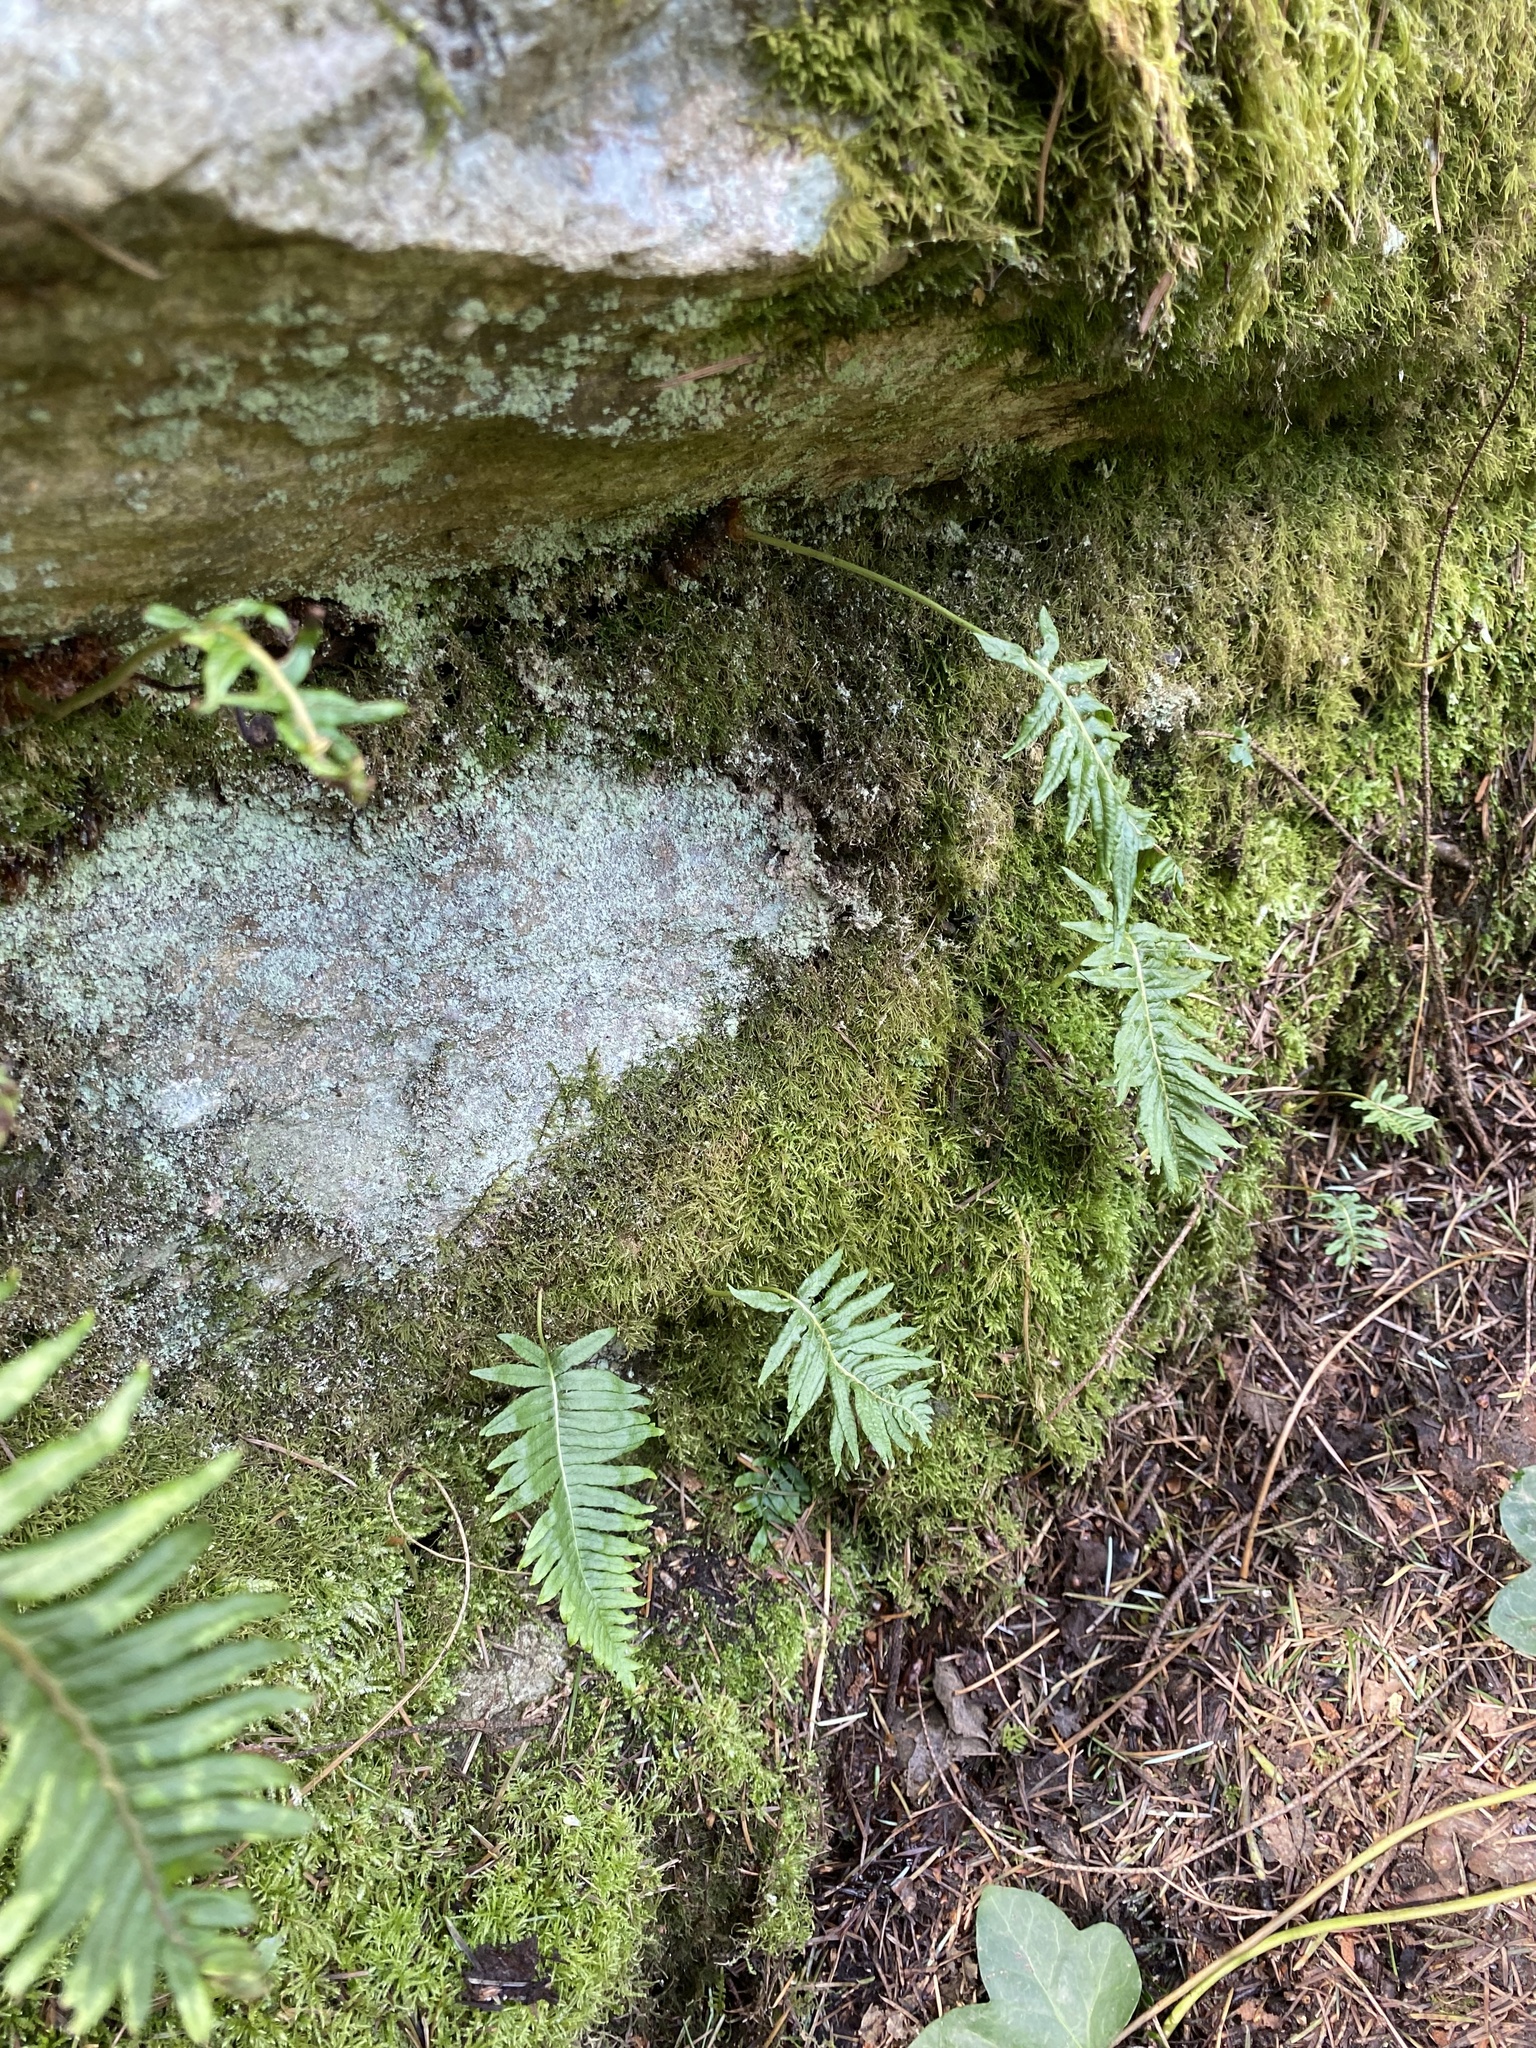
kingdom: Plantae
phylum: Tracheophyta
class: Polypodiopsida
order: Polypodiales
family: Polypodiaceae
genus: Polypodium
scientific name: Polypodium glycyrrhiza
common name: Licorice fern
